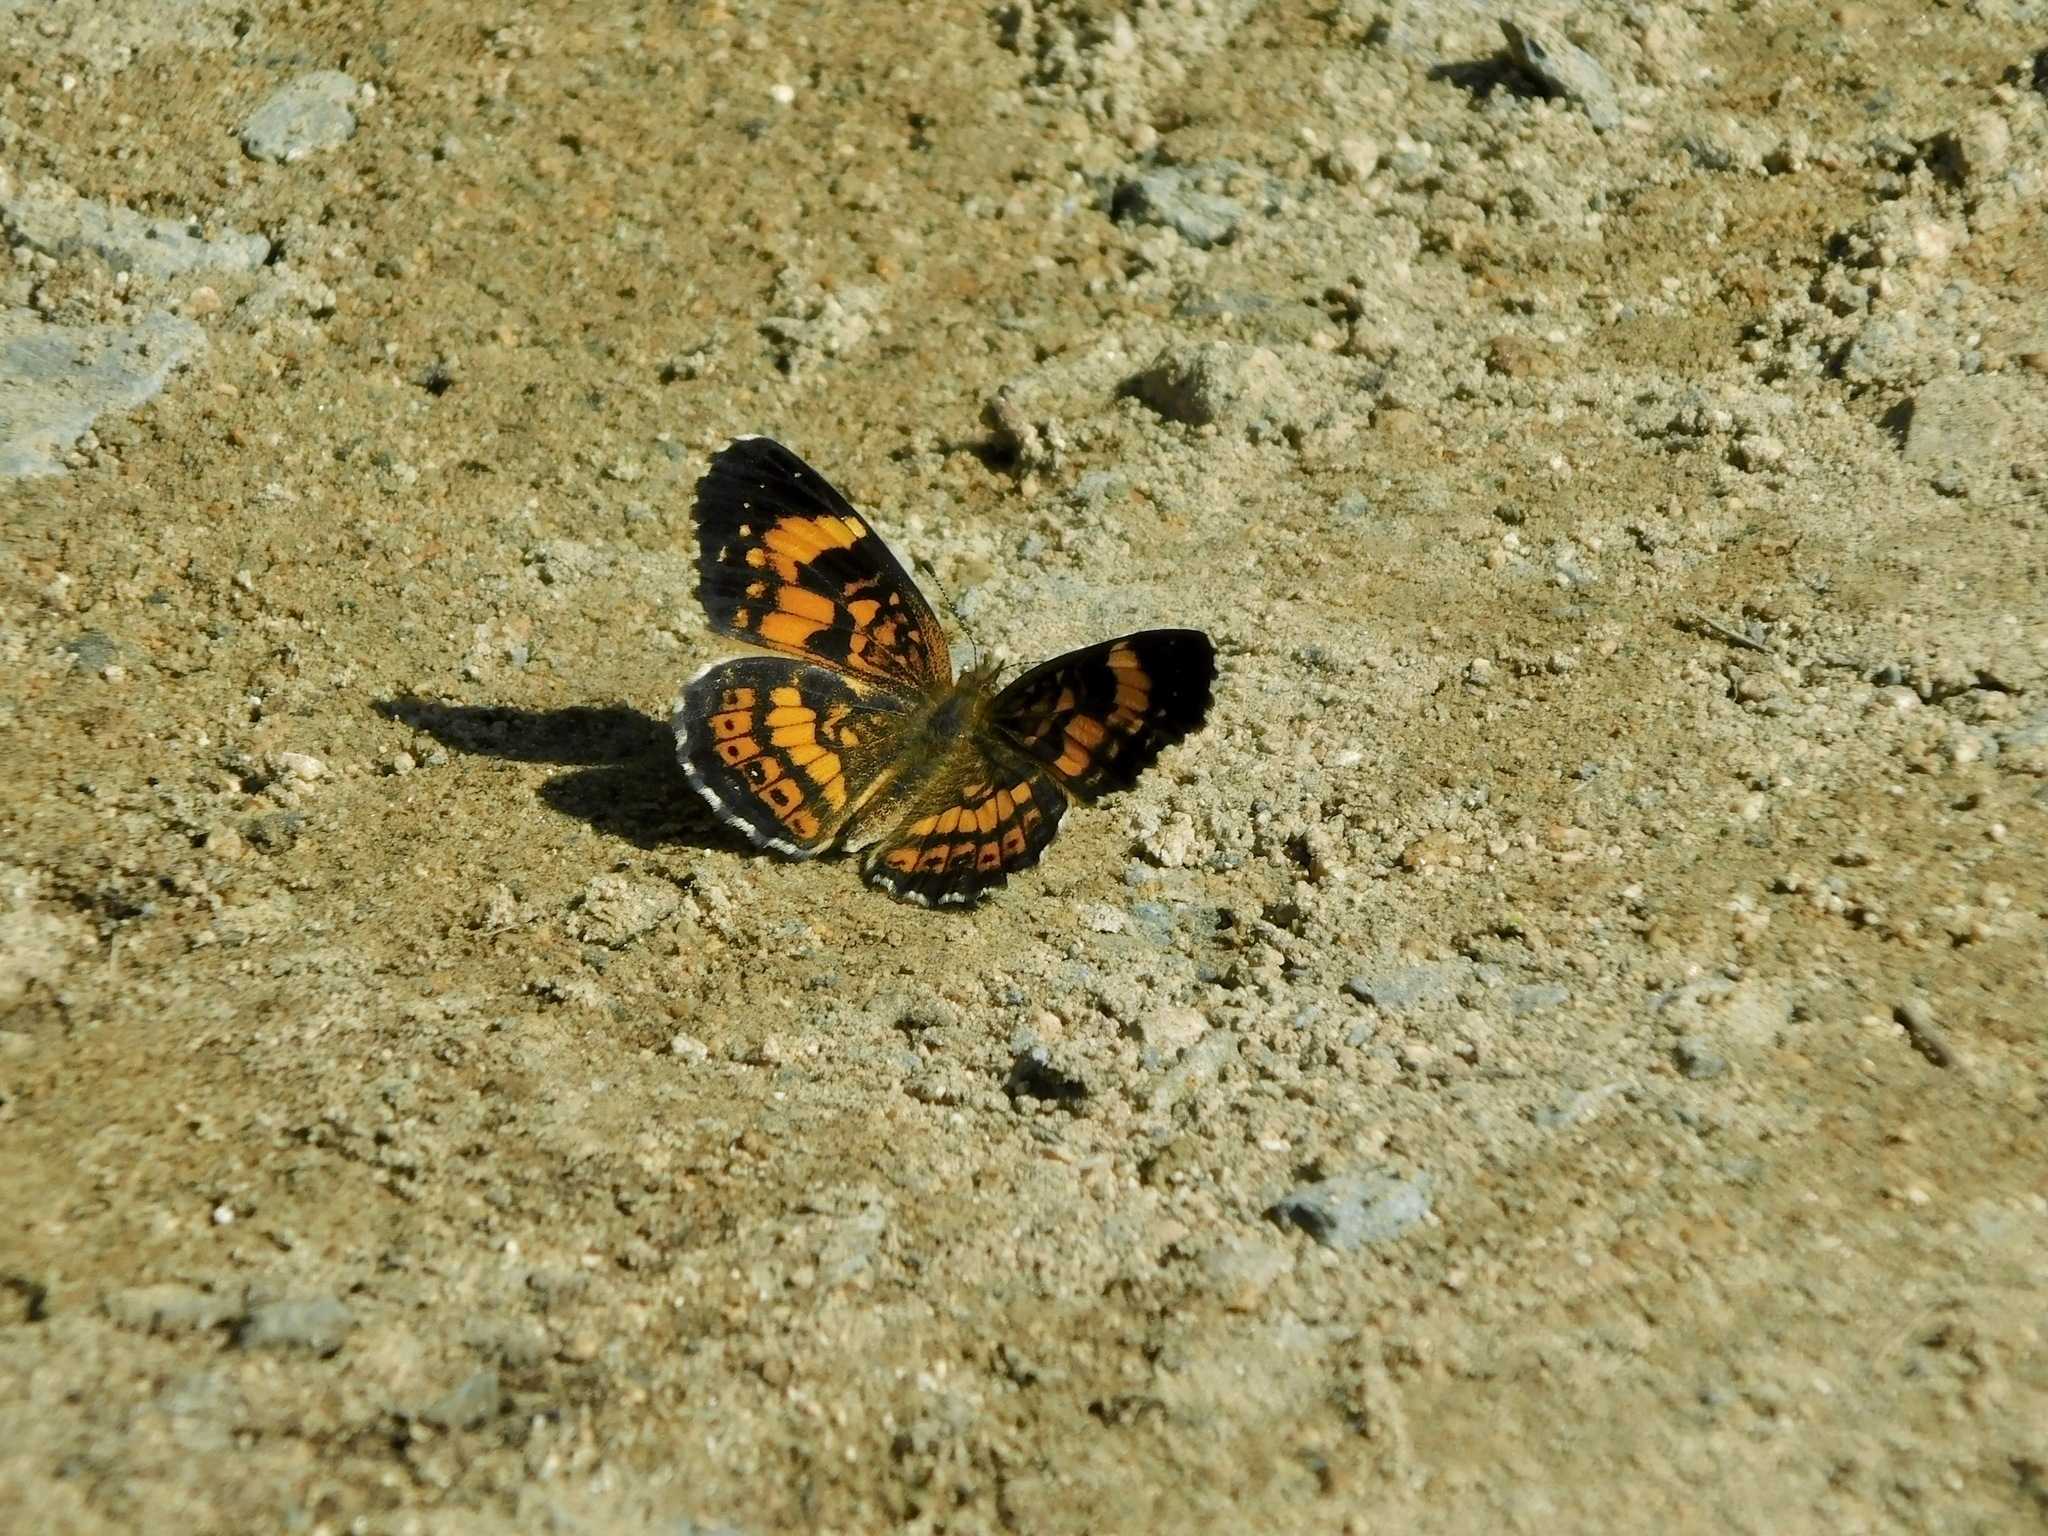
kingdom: Animalia
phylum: Arthropoda
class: Insecta
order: Lepidoptera
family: Nymphalidae
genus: Chlosyne
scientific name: Chlosyne nycteis
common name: Silvery checkerspot
